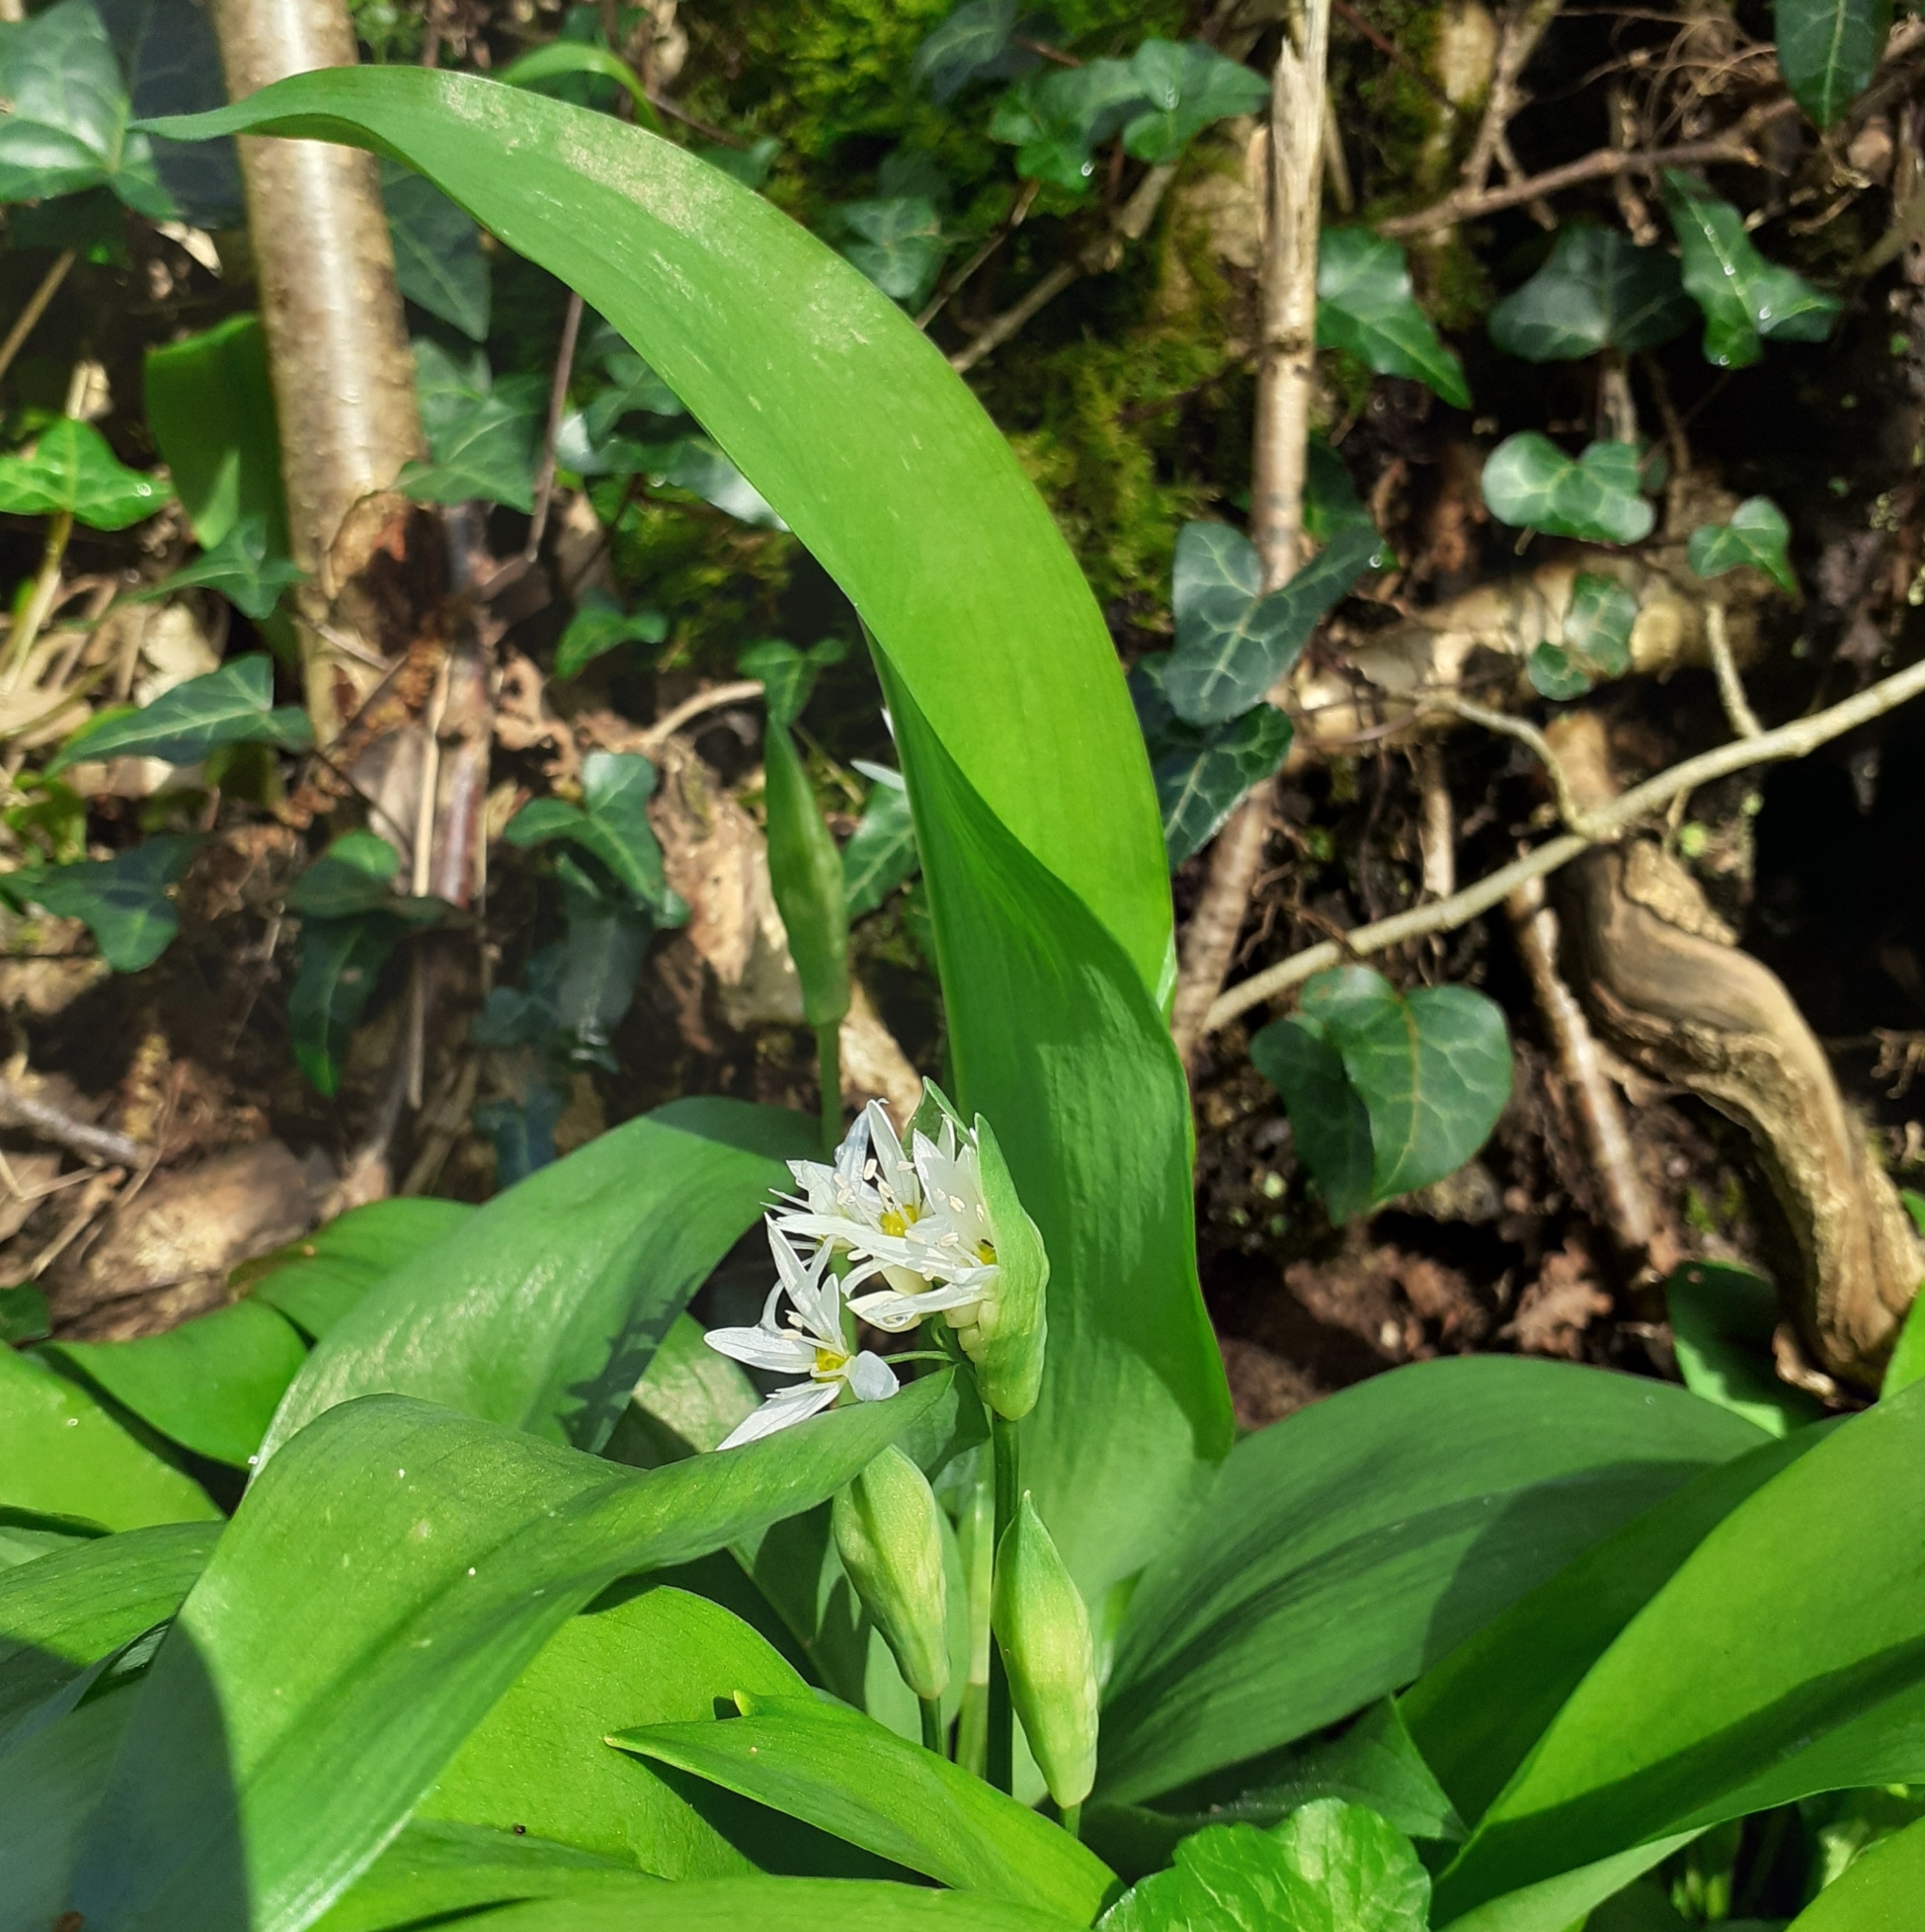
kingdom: Plantae
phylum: Tracheophyta
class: Liliopsida
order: Asparagales
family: Amaryllidaceae
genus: Allium
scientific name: Allium ursinum
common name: Ramsons
